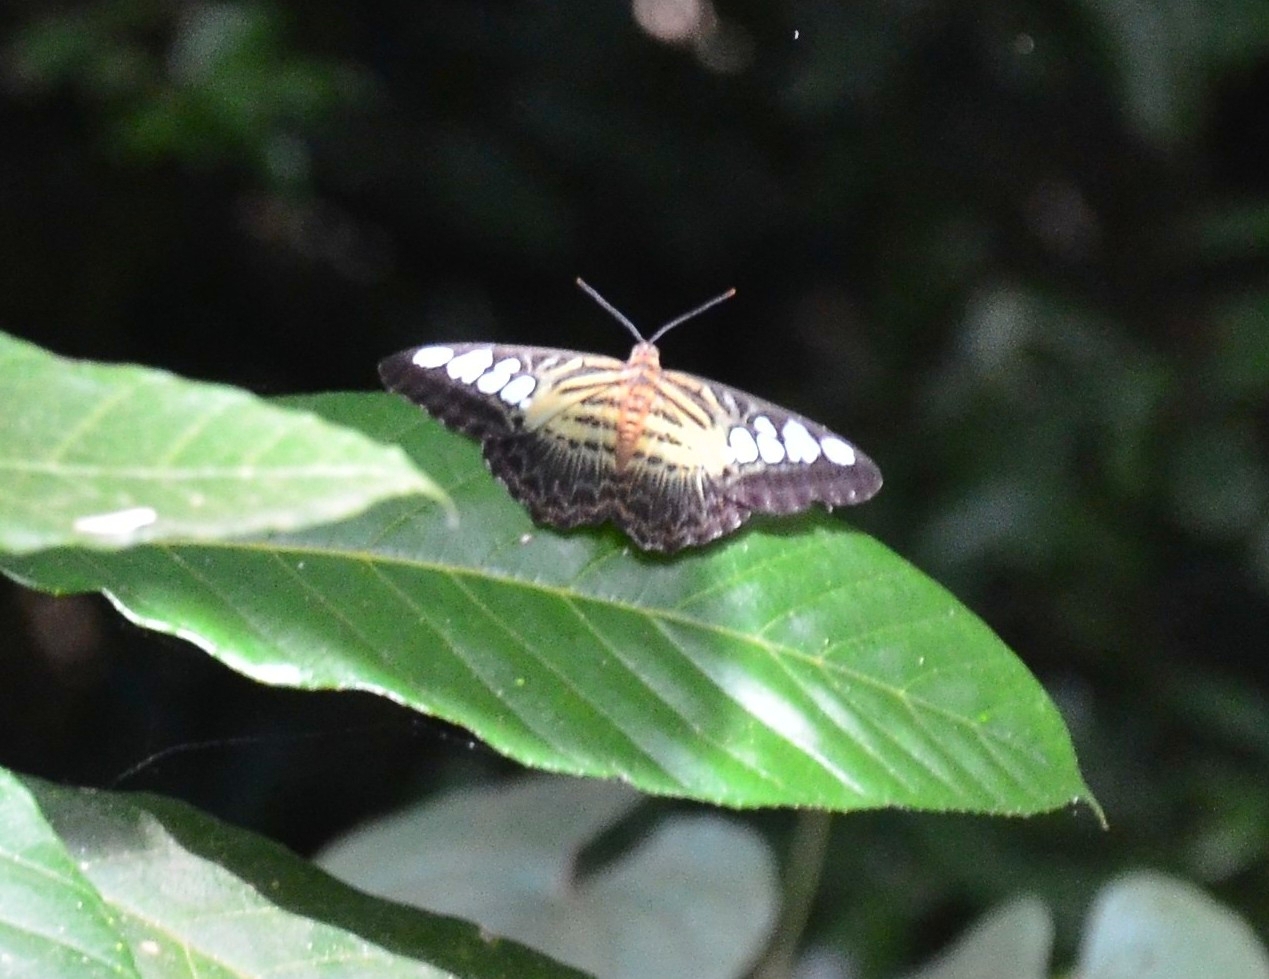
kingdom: Animalia
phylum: Arthropoda
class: Insecta
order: Lepidoptera
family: Nymphalidae
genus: Kallima
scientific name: Kallima sylvia
